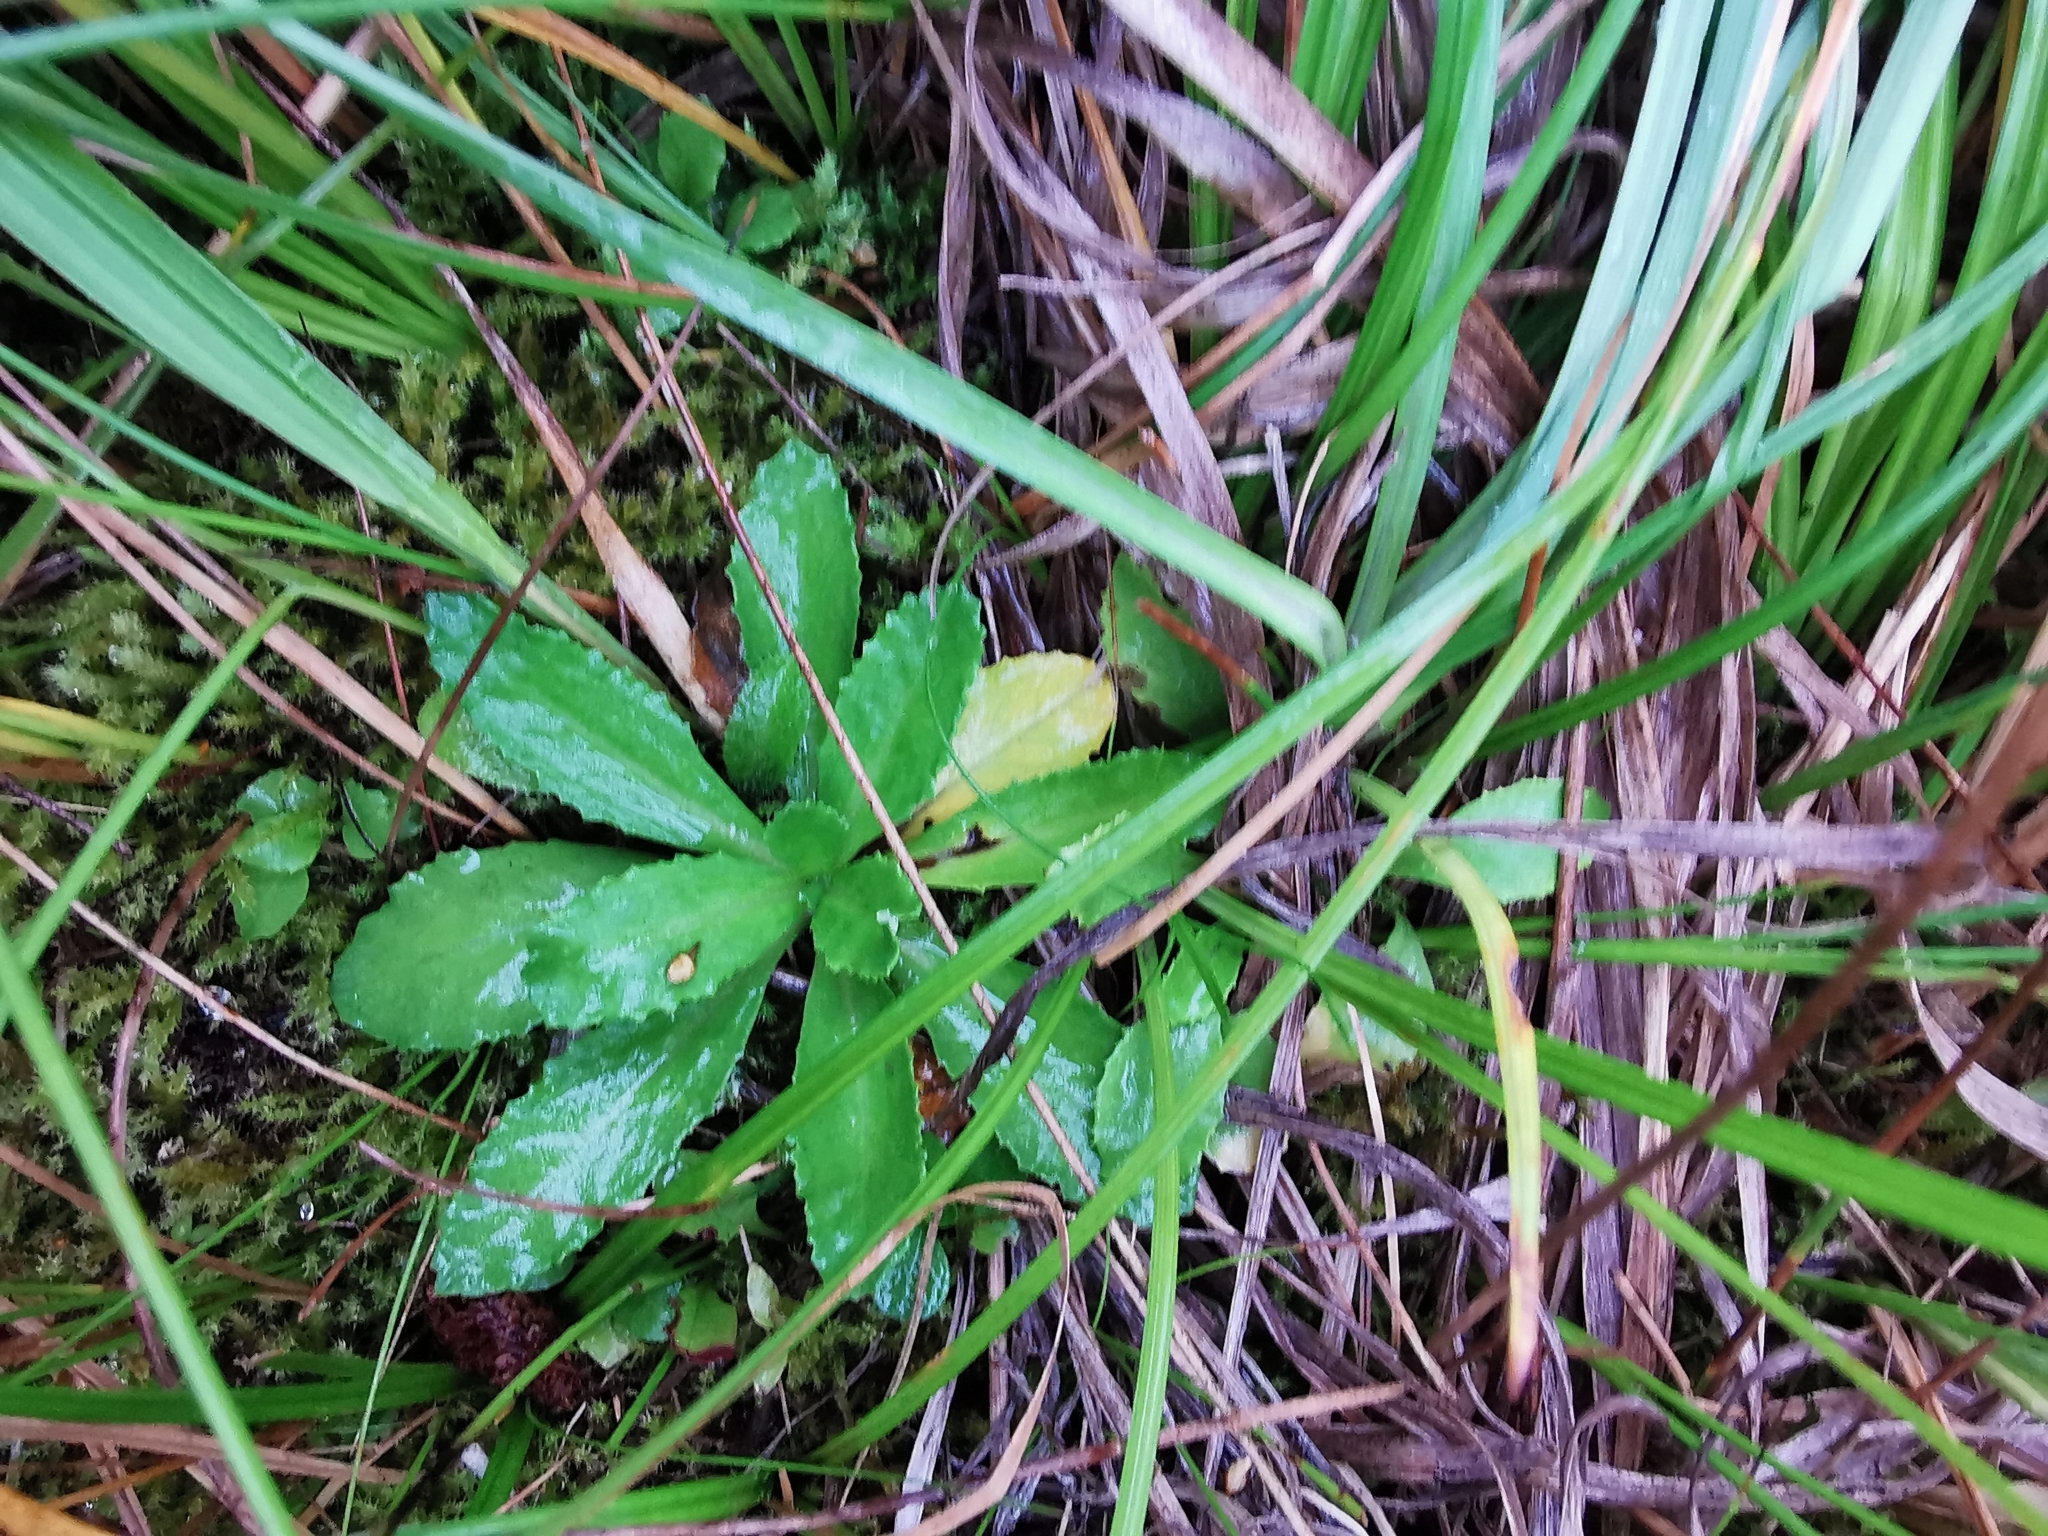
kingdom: Plantae
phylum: Tracheophyta
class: Magnoliopsida
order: Ericales
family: Primulaceae
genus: Primula
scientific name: Primula farinosa
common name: Bird's-eye primrose
